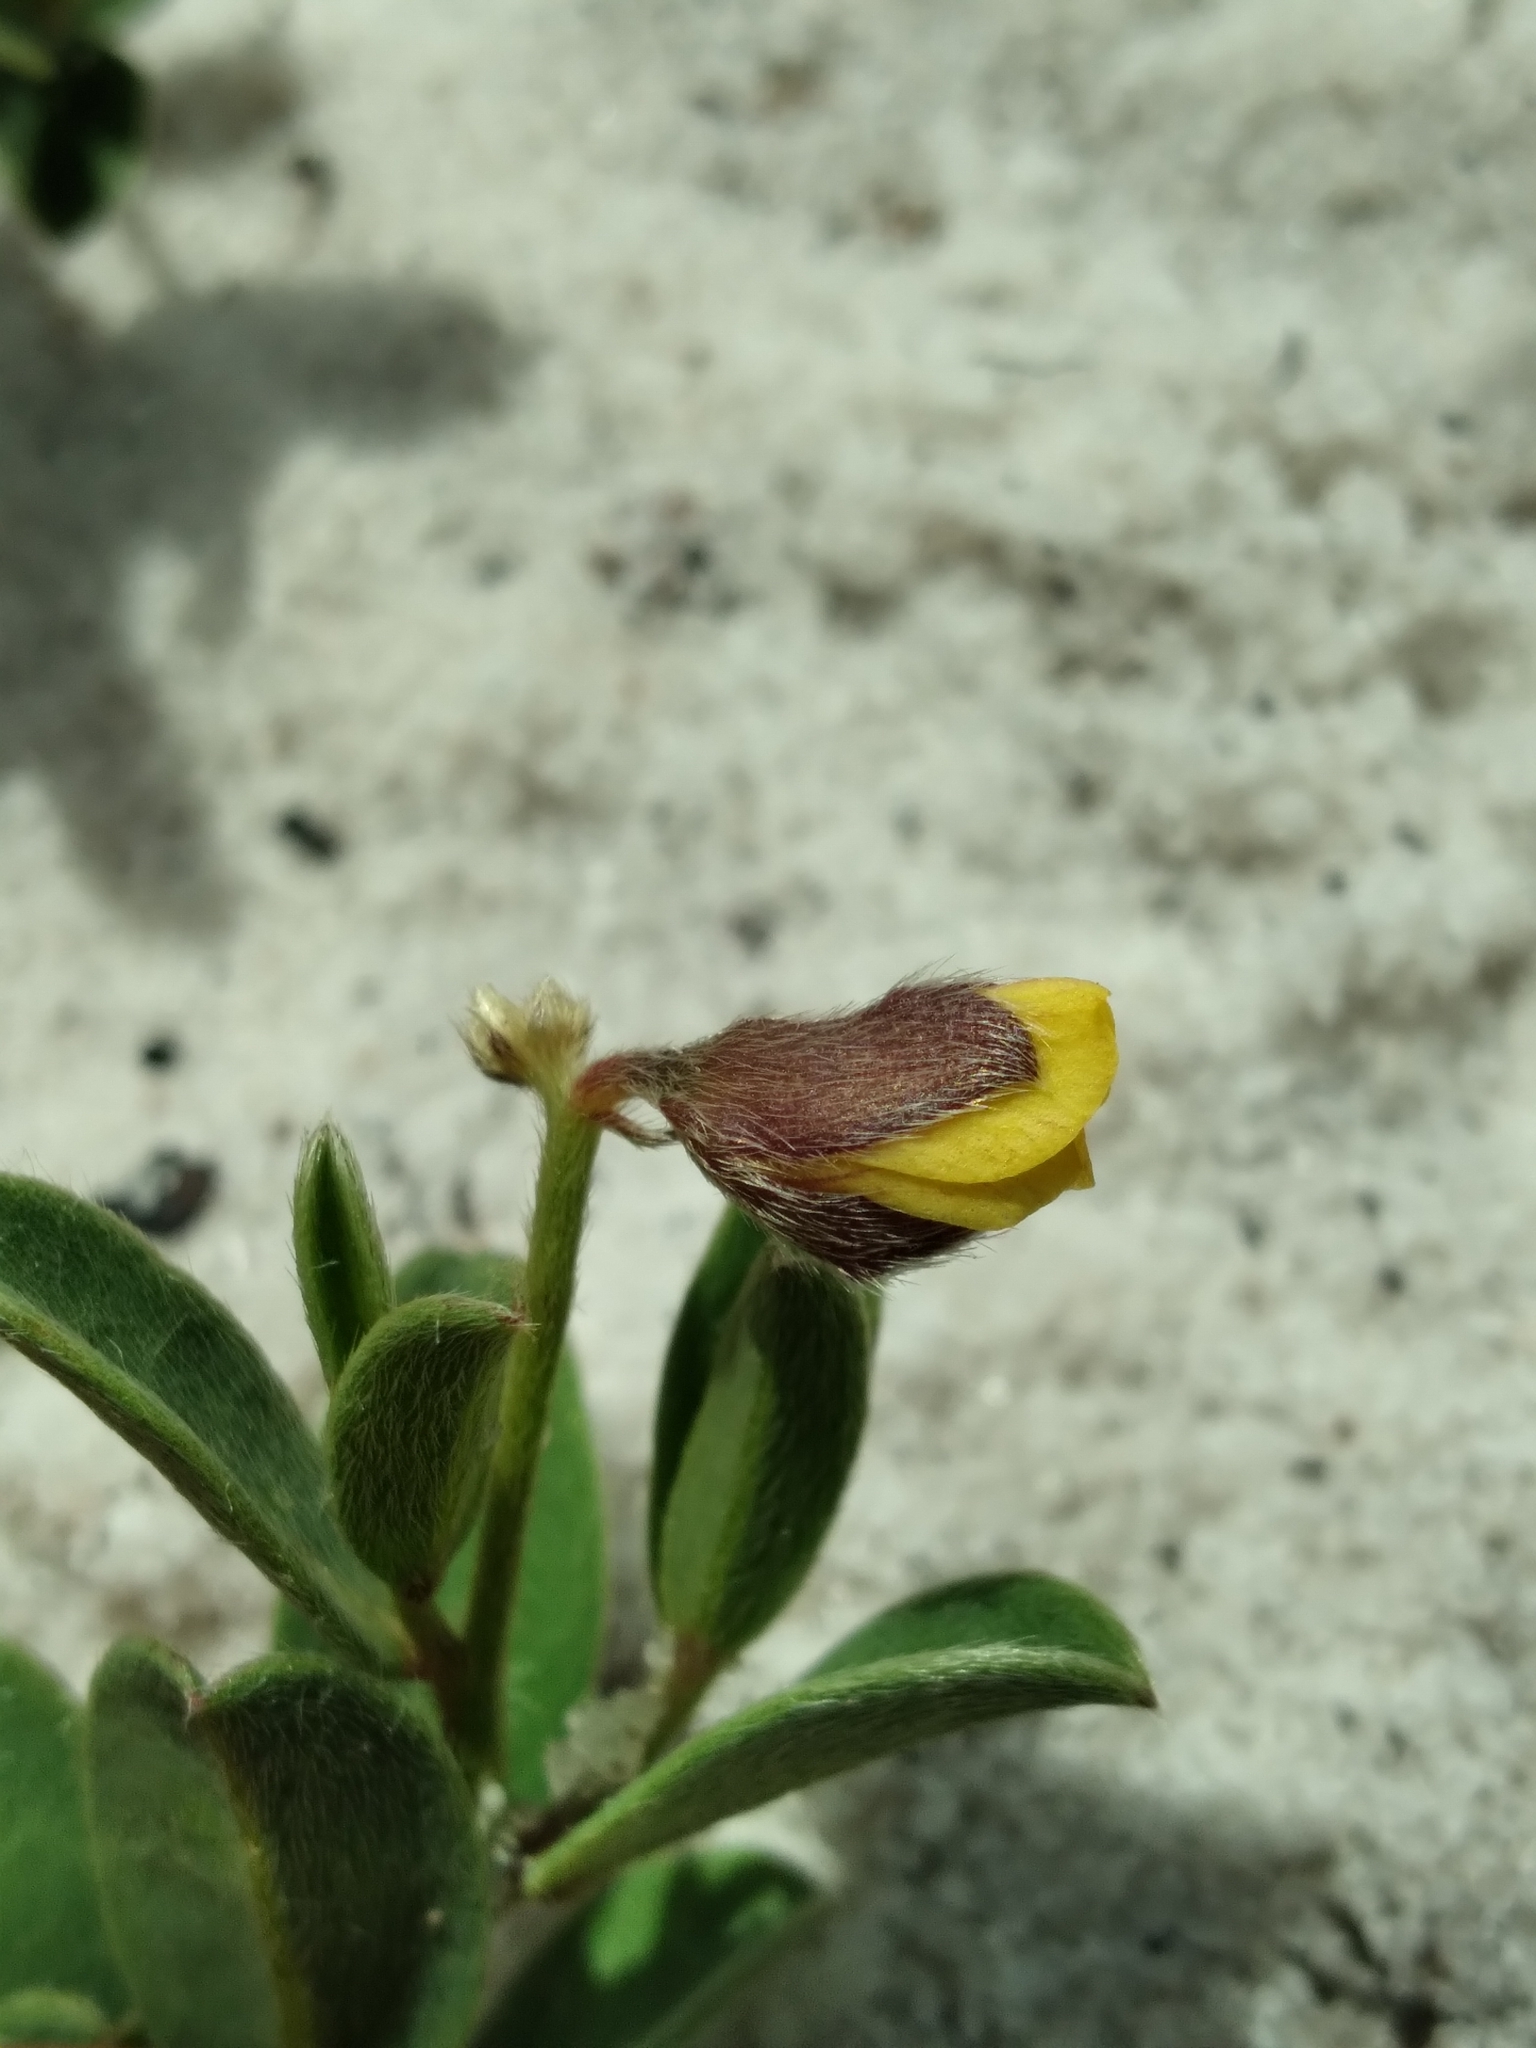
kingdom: Plantae
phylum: Tracheophyta
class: Magnoliopsida
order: Fabales
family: Fabaceae
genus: Crotalaria
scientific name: Crotalaria avonensis
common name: Avon park harebells
